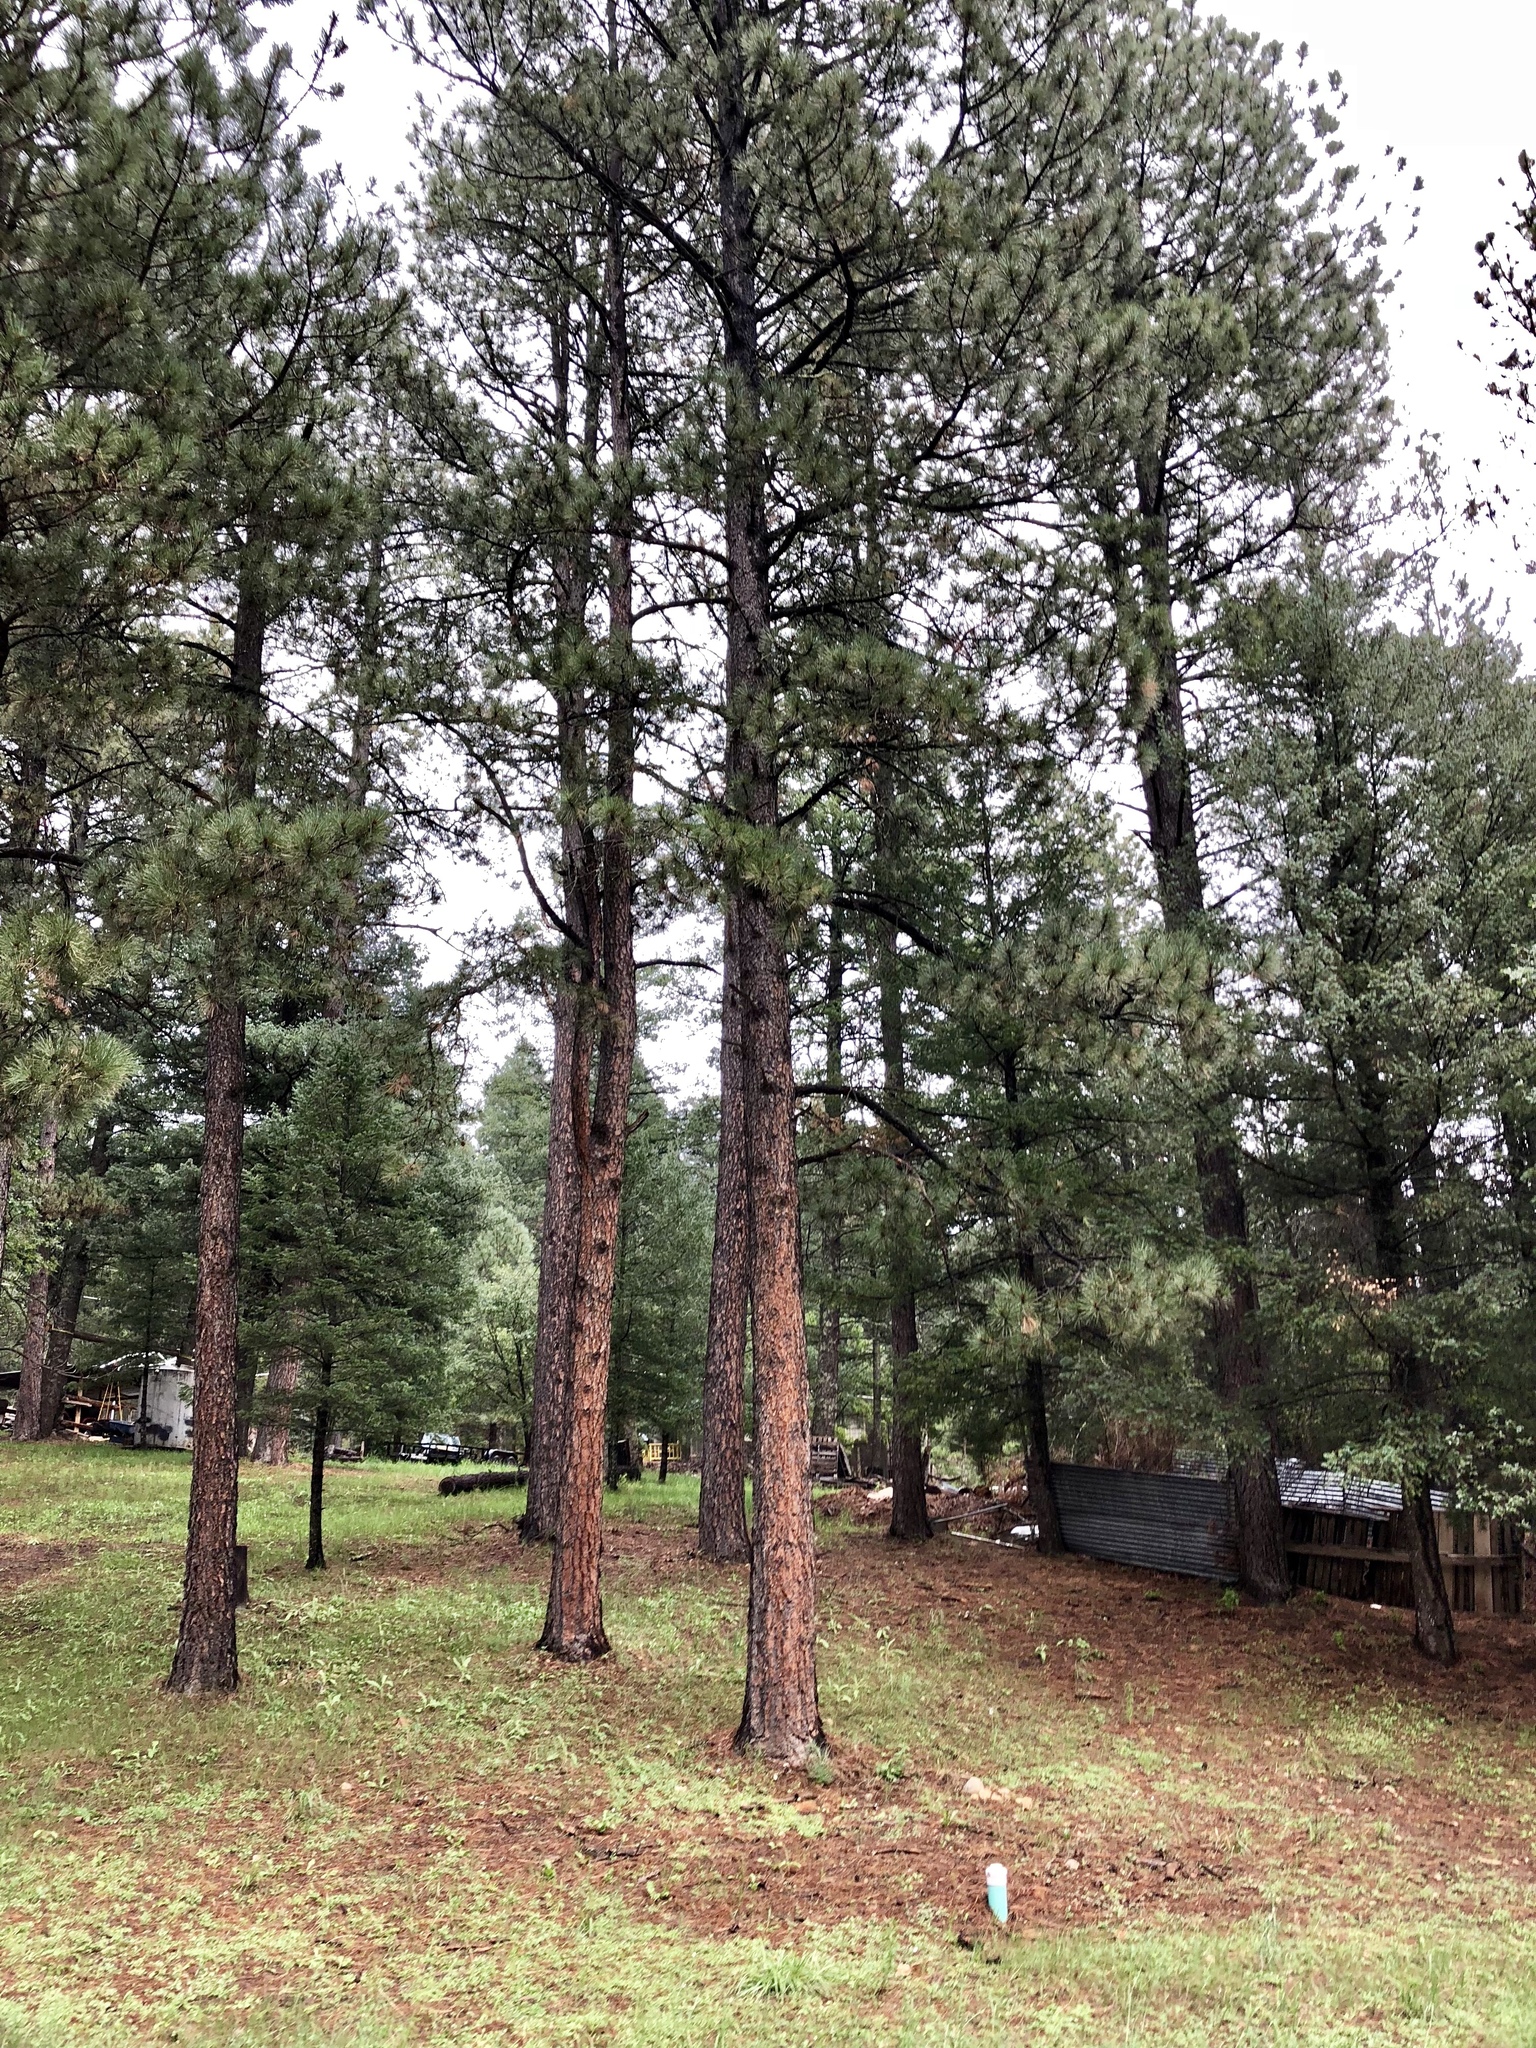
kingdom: Plantae
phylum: Tracheophyta
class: Pinopsida
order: Pinales
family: Pinaceae
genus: Pinus
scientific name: Pinus ponderosa
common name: Western yellow-pine
